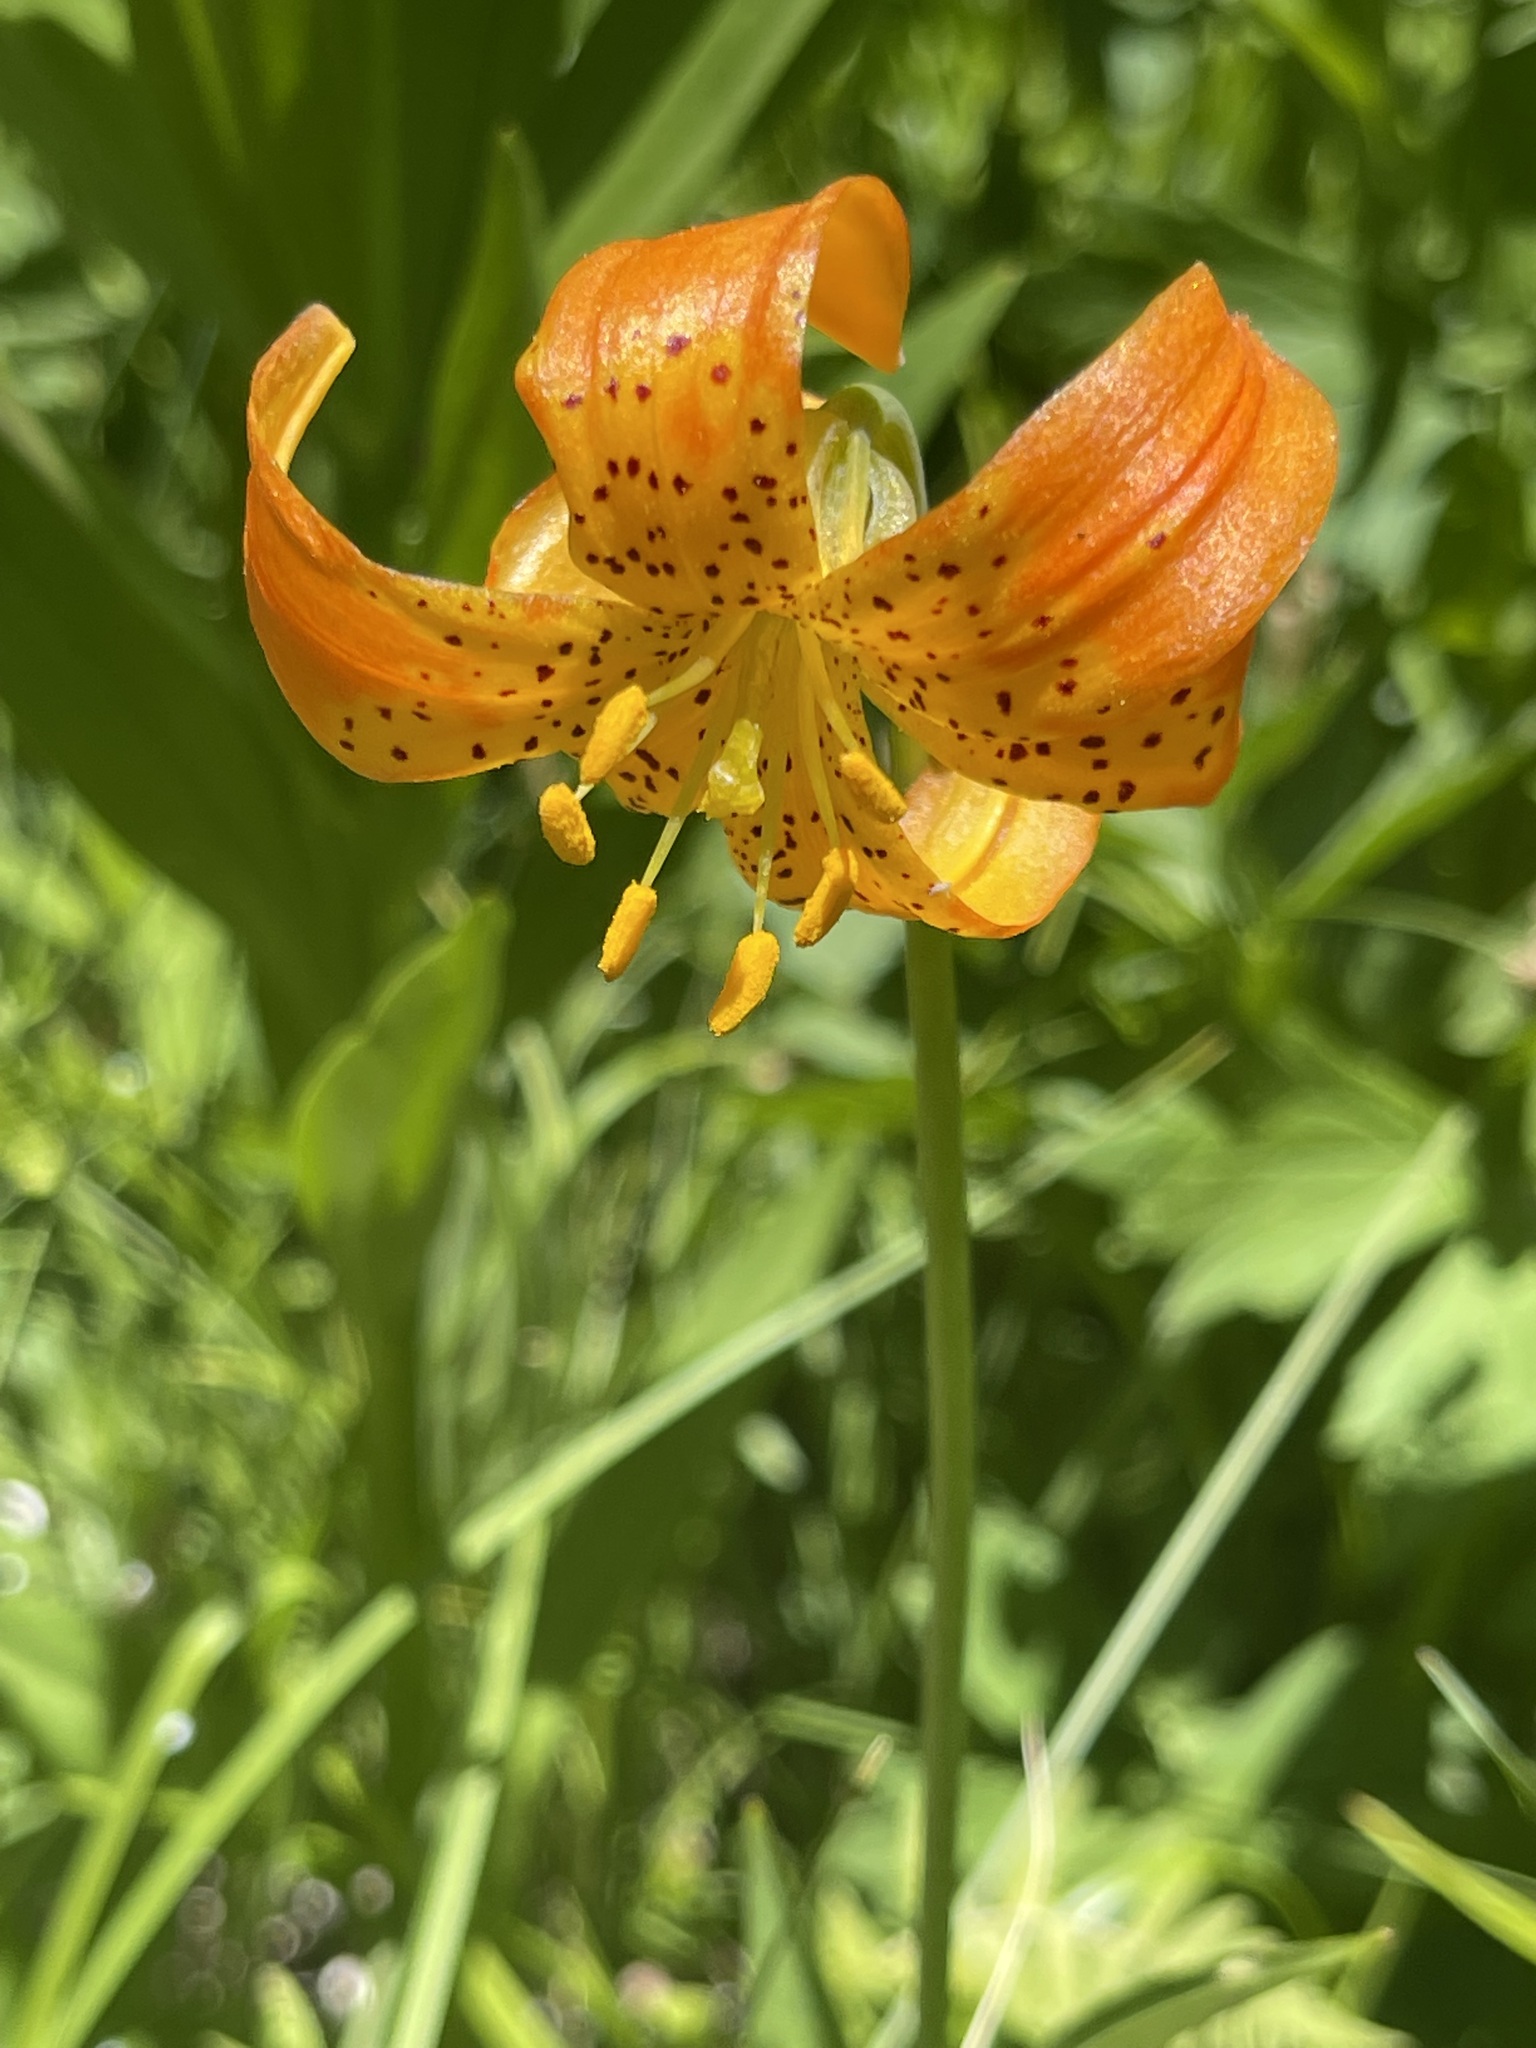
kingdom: Plantae
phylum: Tracheophyta
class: Liliopsida
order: Liliales
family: Liliaceae
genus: Lilium
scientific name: Lilium pardalinum
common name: Panther lily
